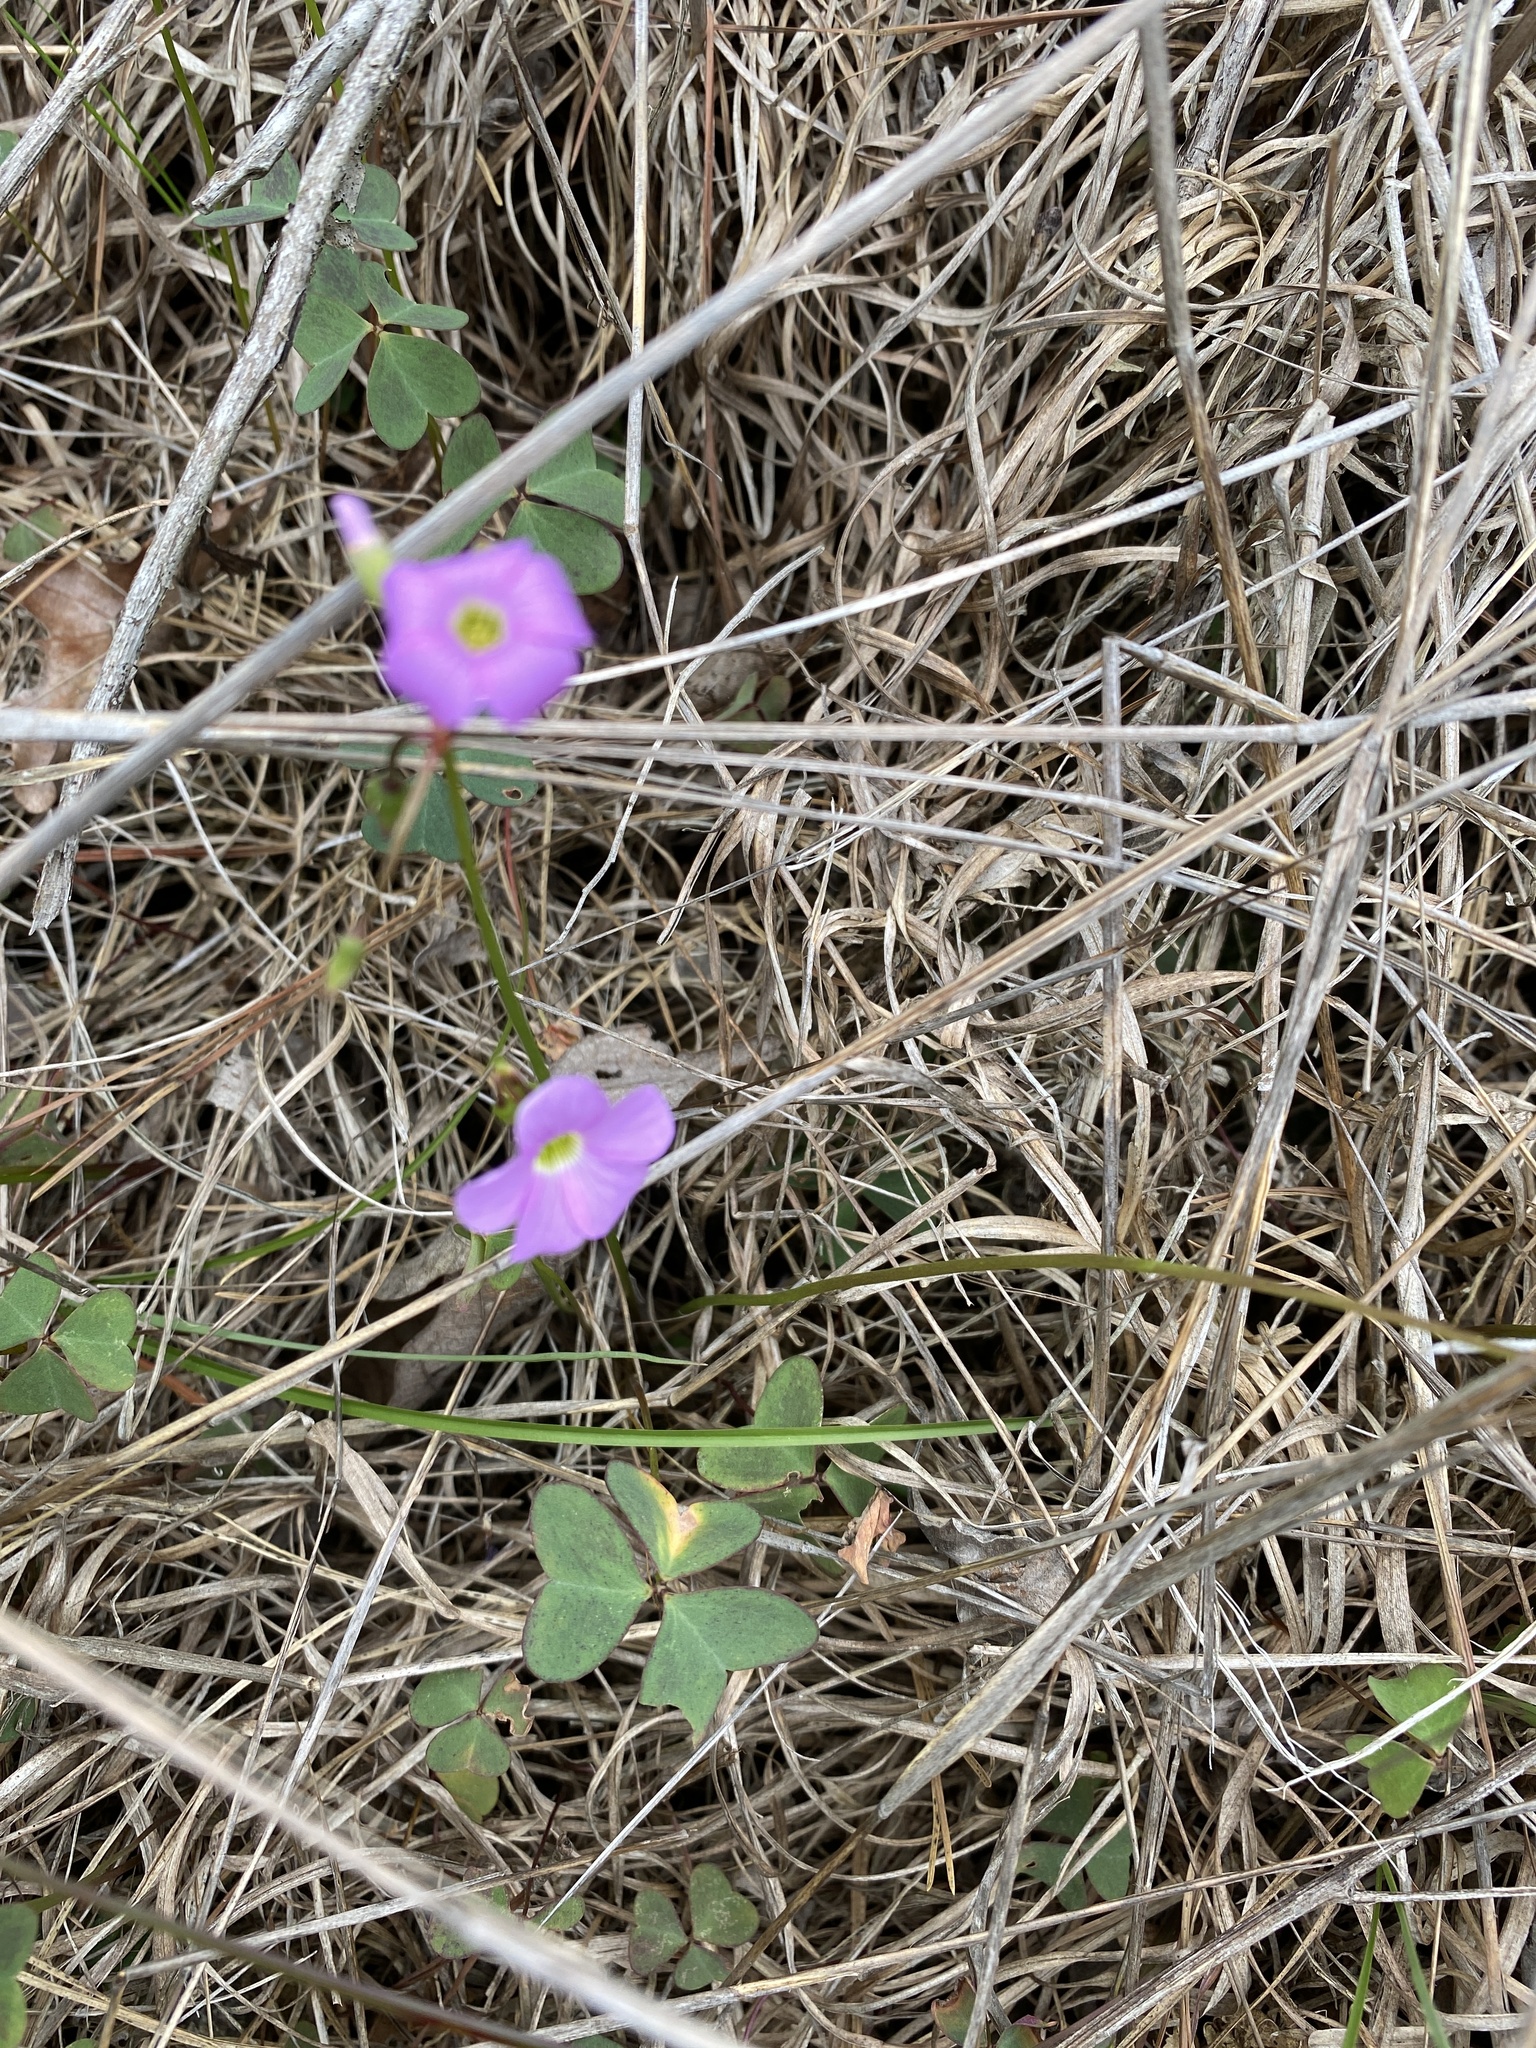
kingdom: Plantae
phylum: Tracheophyta
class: Magnoliopsida
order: Oxalidales
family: Oxalidaceae
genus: Oxalis
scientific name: Oxalis violacea
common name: Violet wood-sorrel
